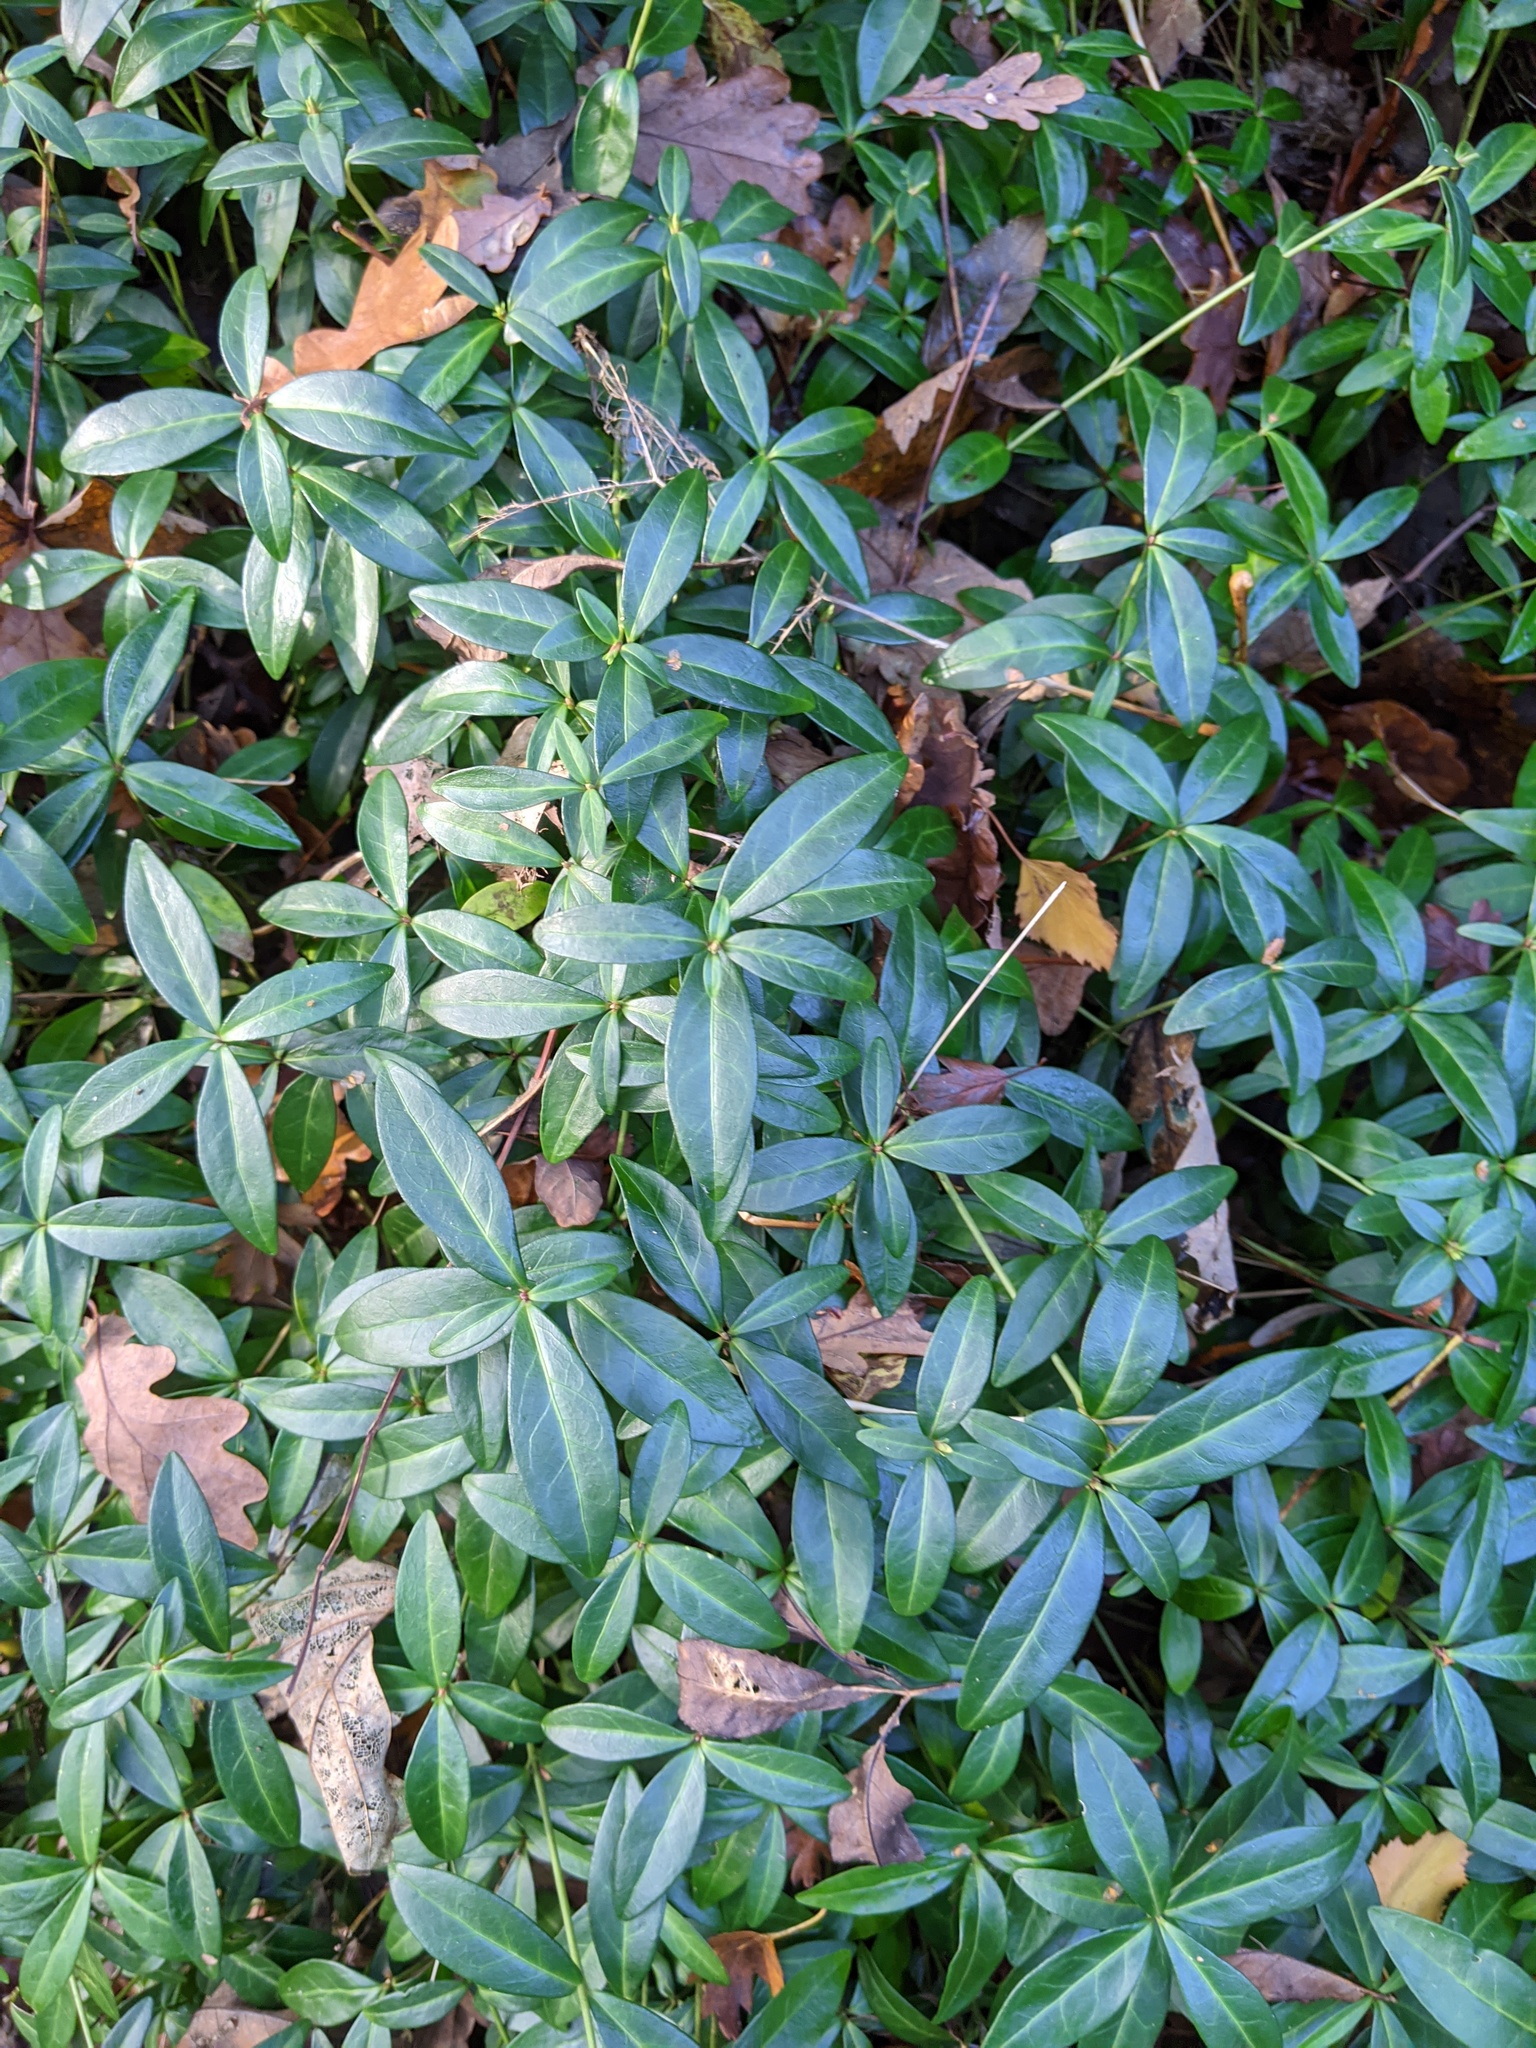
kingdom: Plantae
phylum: Tracheophyta
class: Magnoliopsida
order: Gentianales
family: Apocynaceae
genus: Vinca
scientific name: Vinca minor
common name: Lesser periwinkle
